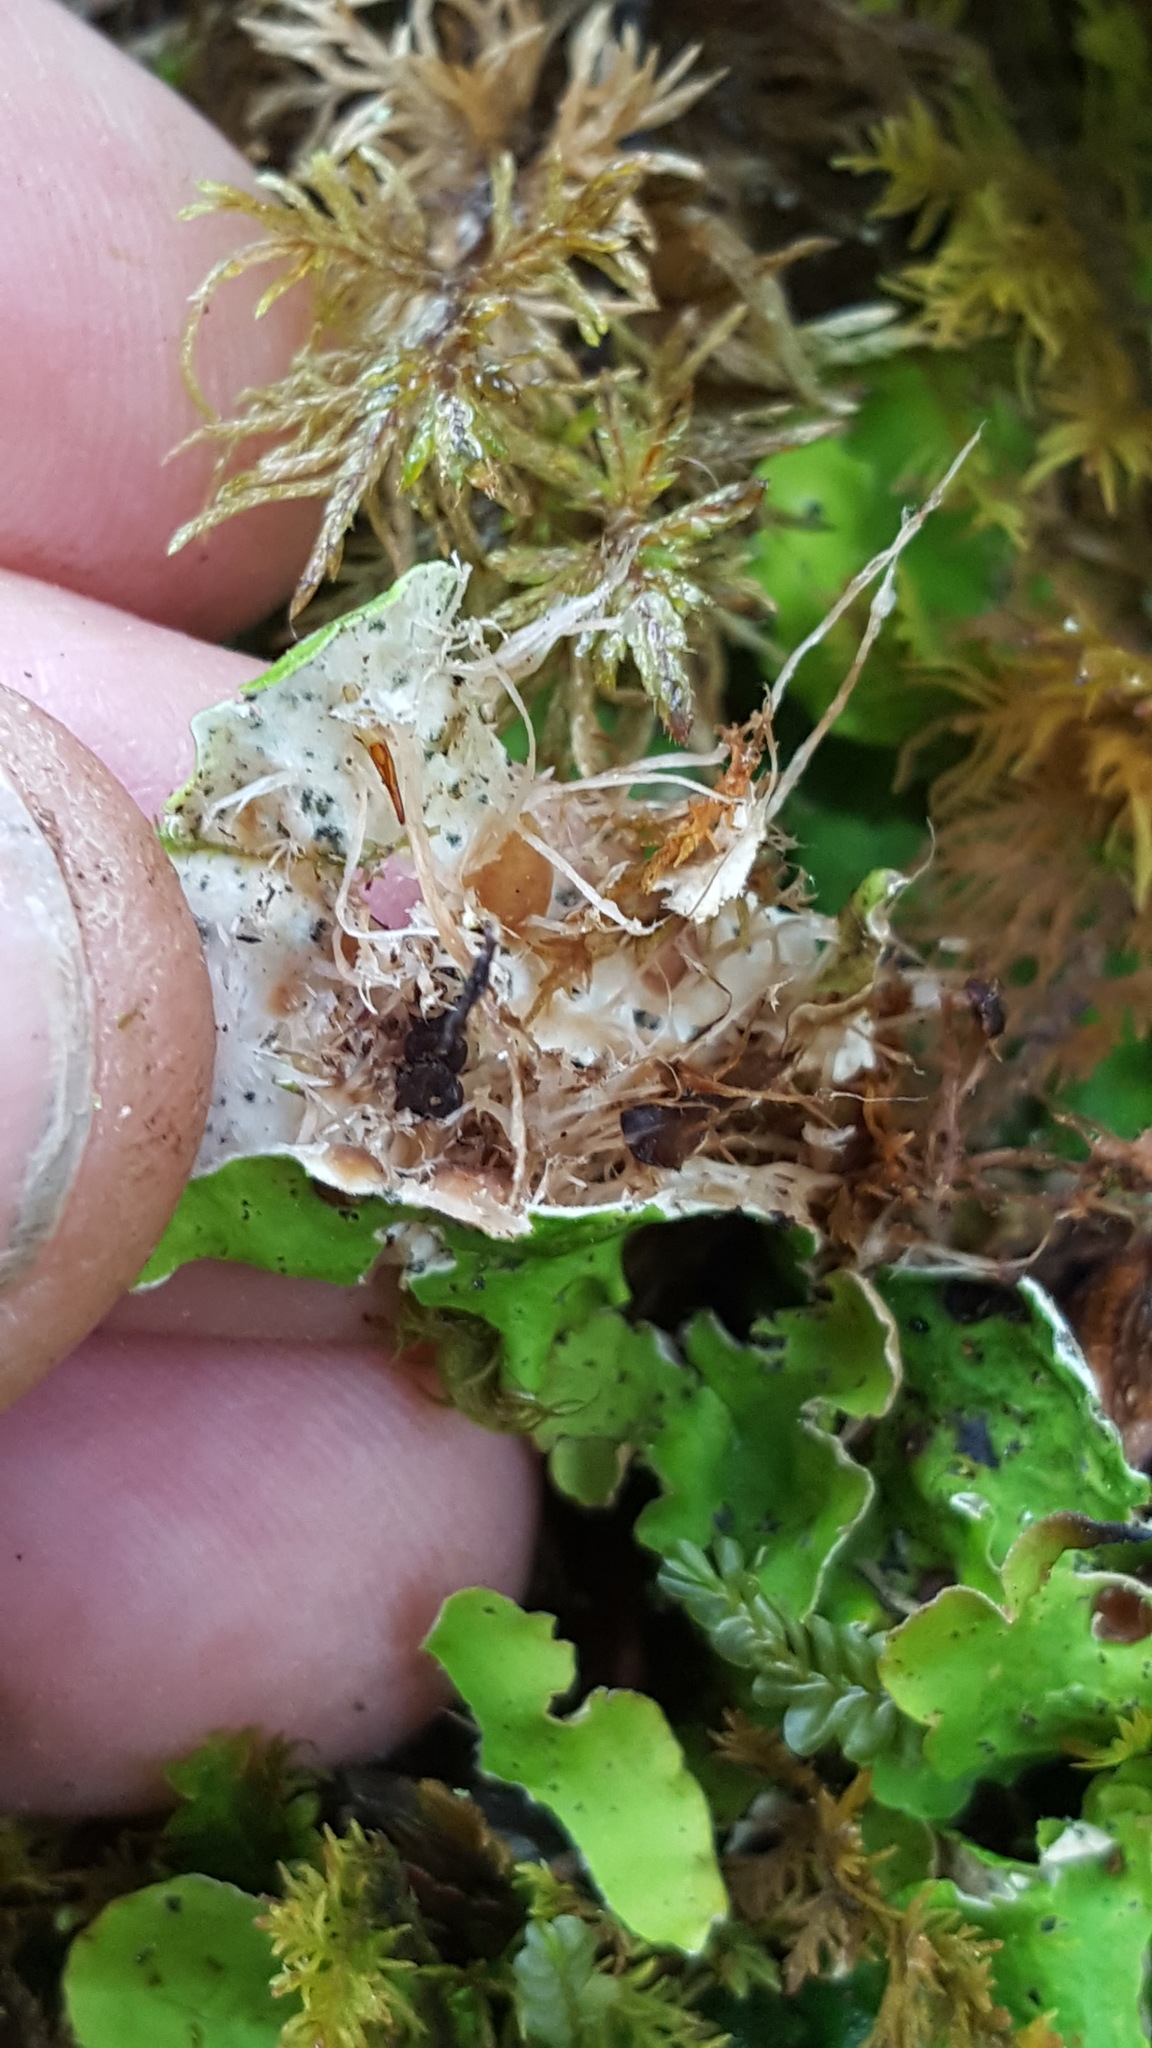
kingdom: Fungi
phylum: Ascomycota
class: Lecanoromycetes
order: Peltigerales
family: Peltigeraceae
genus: Solorina
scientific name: Solorina saccata
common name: Common chocolate chip lichen
